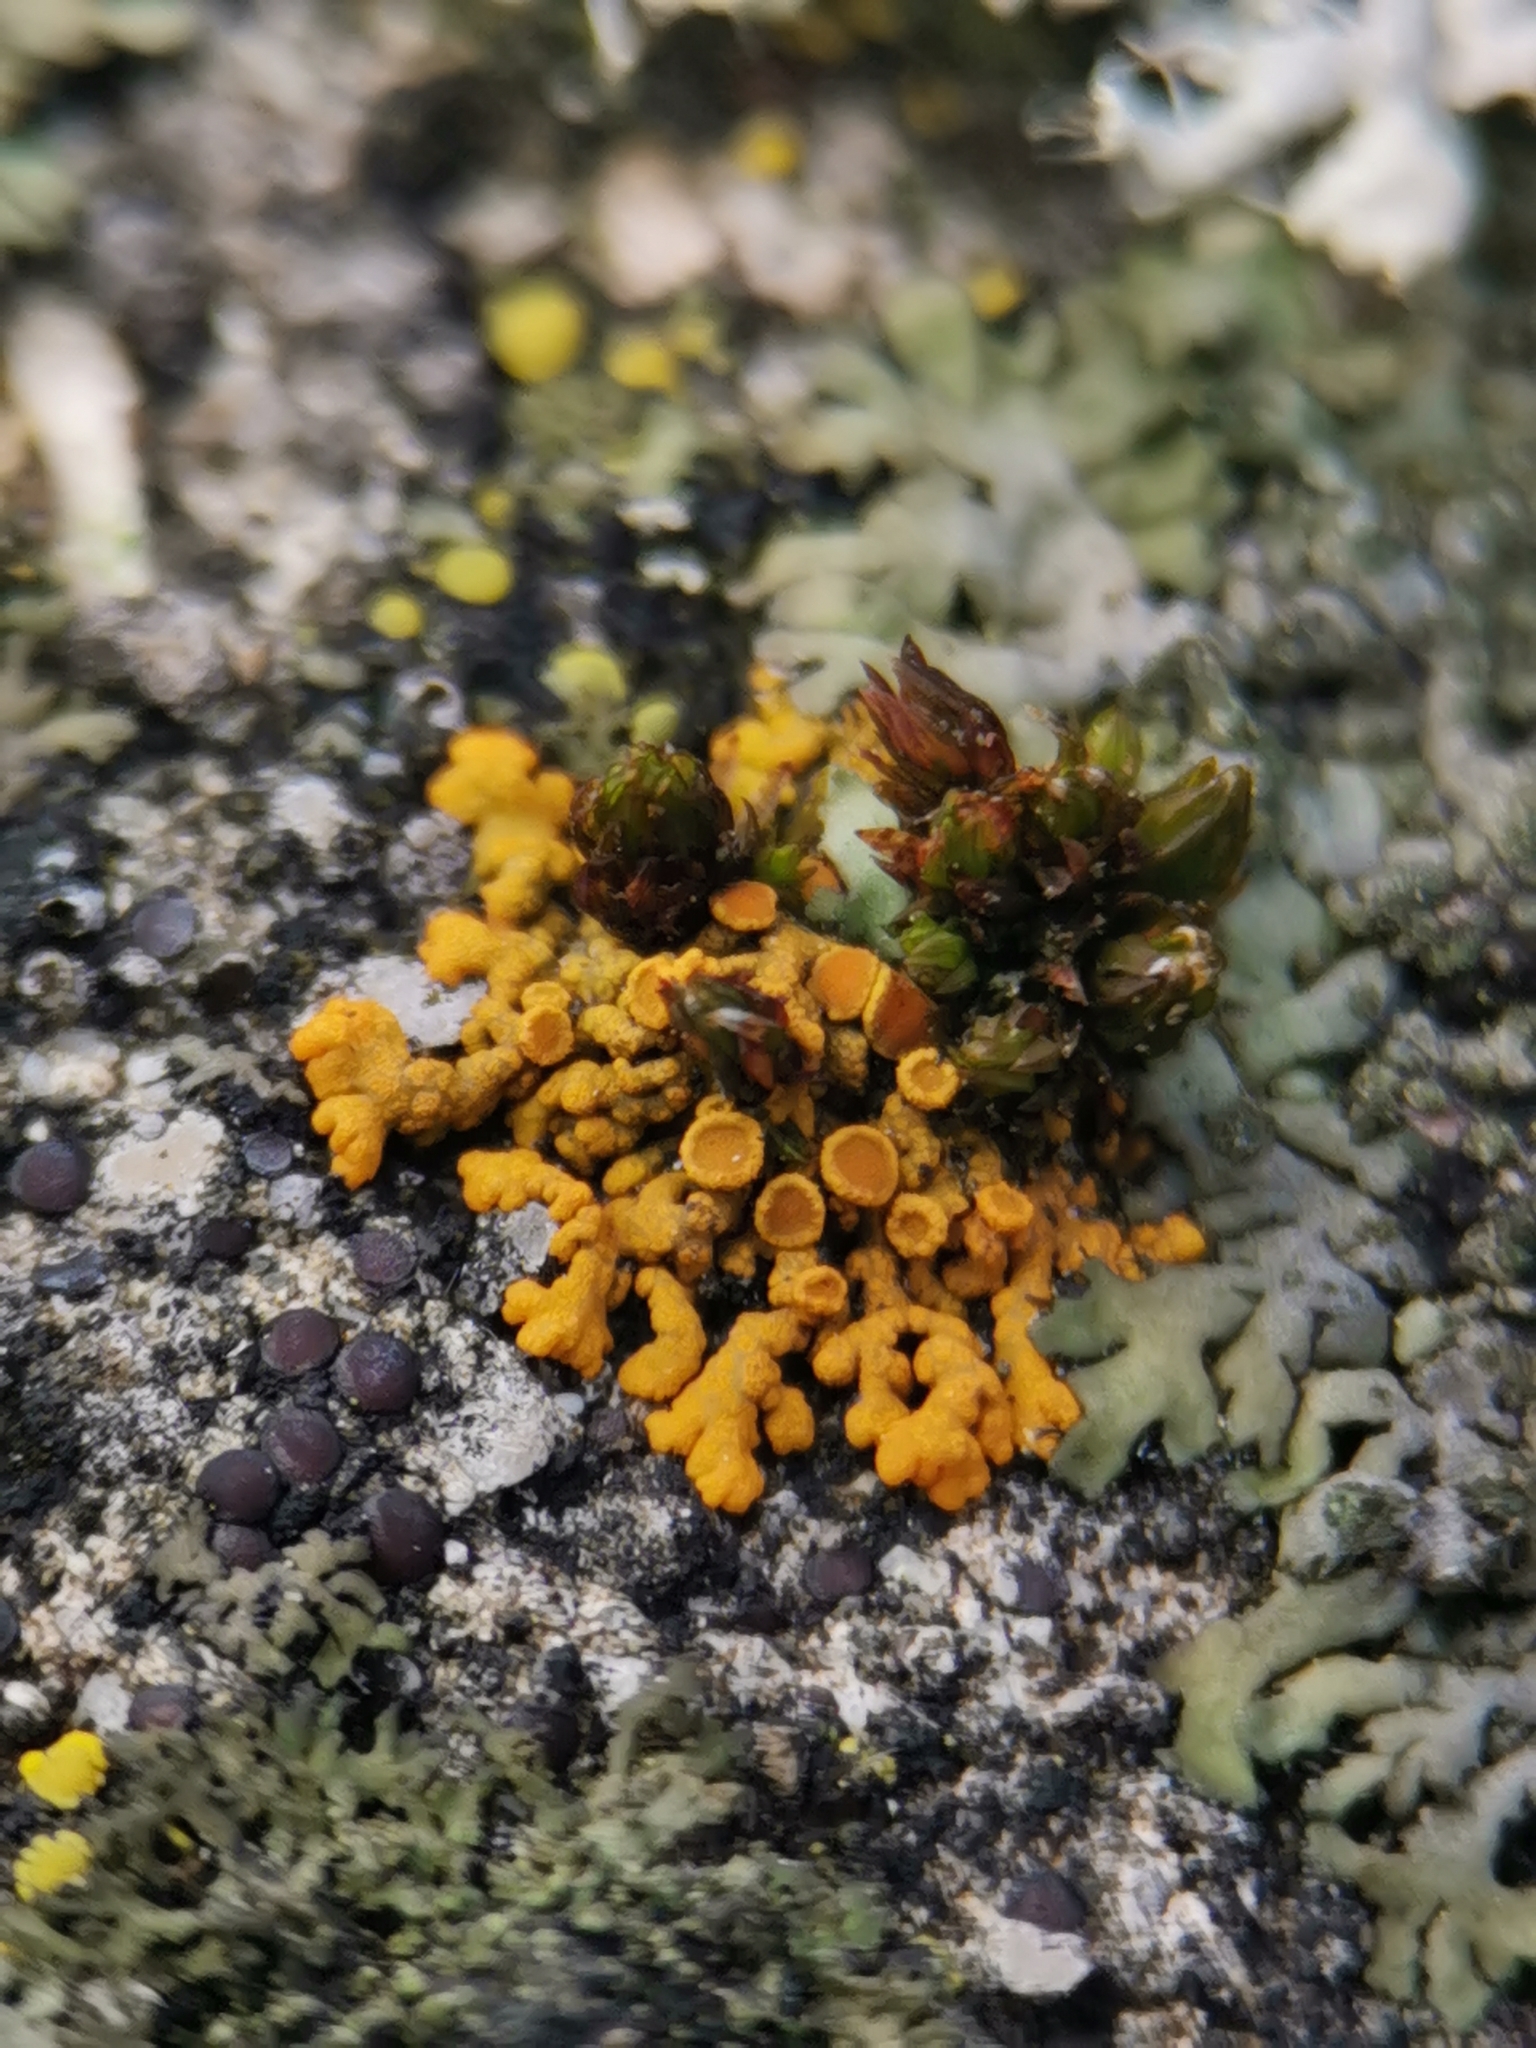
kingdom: Fungi
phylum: Ascomycota
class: Lecanoromycetes
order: Teloschistales
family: Teloschistaceae
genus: Xanthoria
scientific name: Xanthoria elegans
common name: Elegant sunburst lichen
